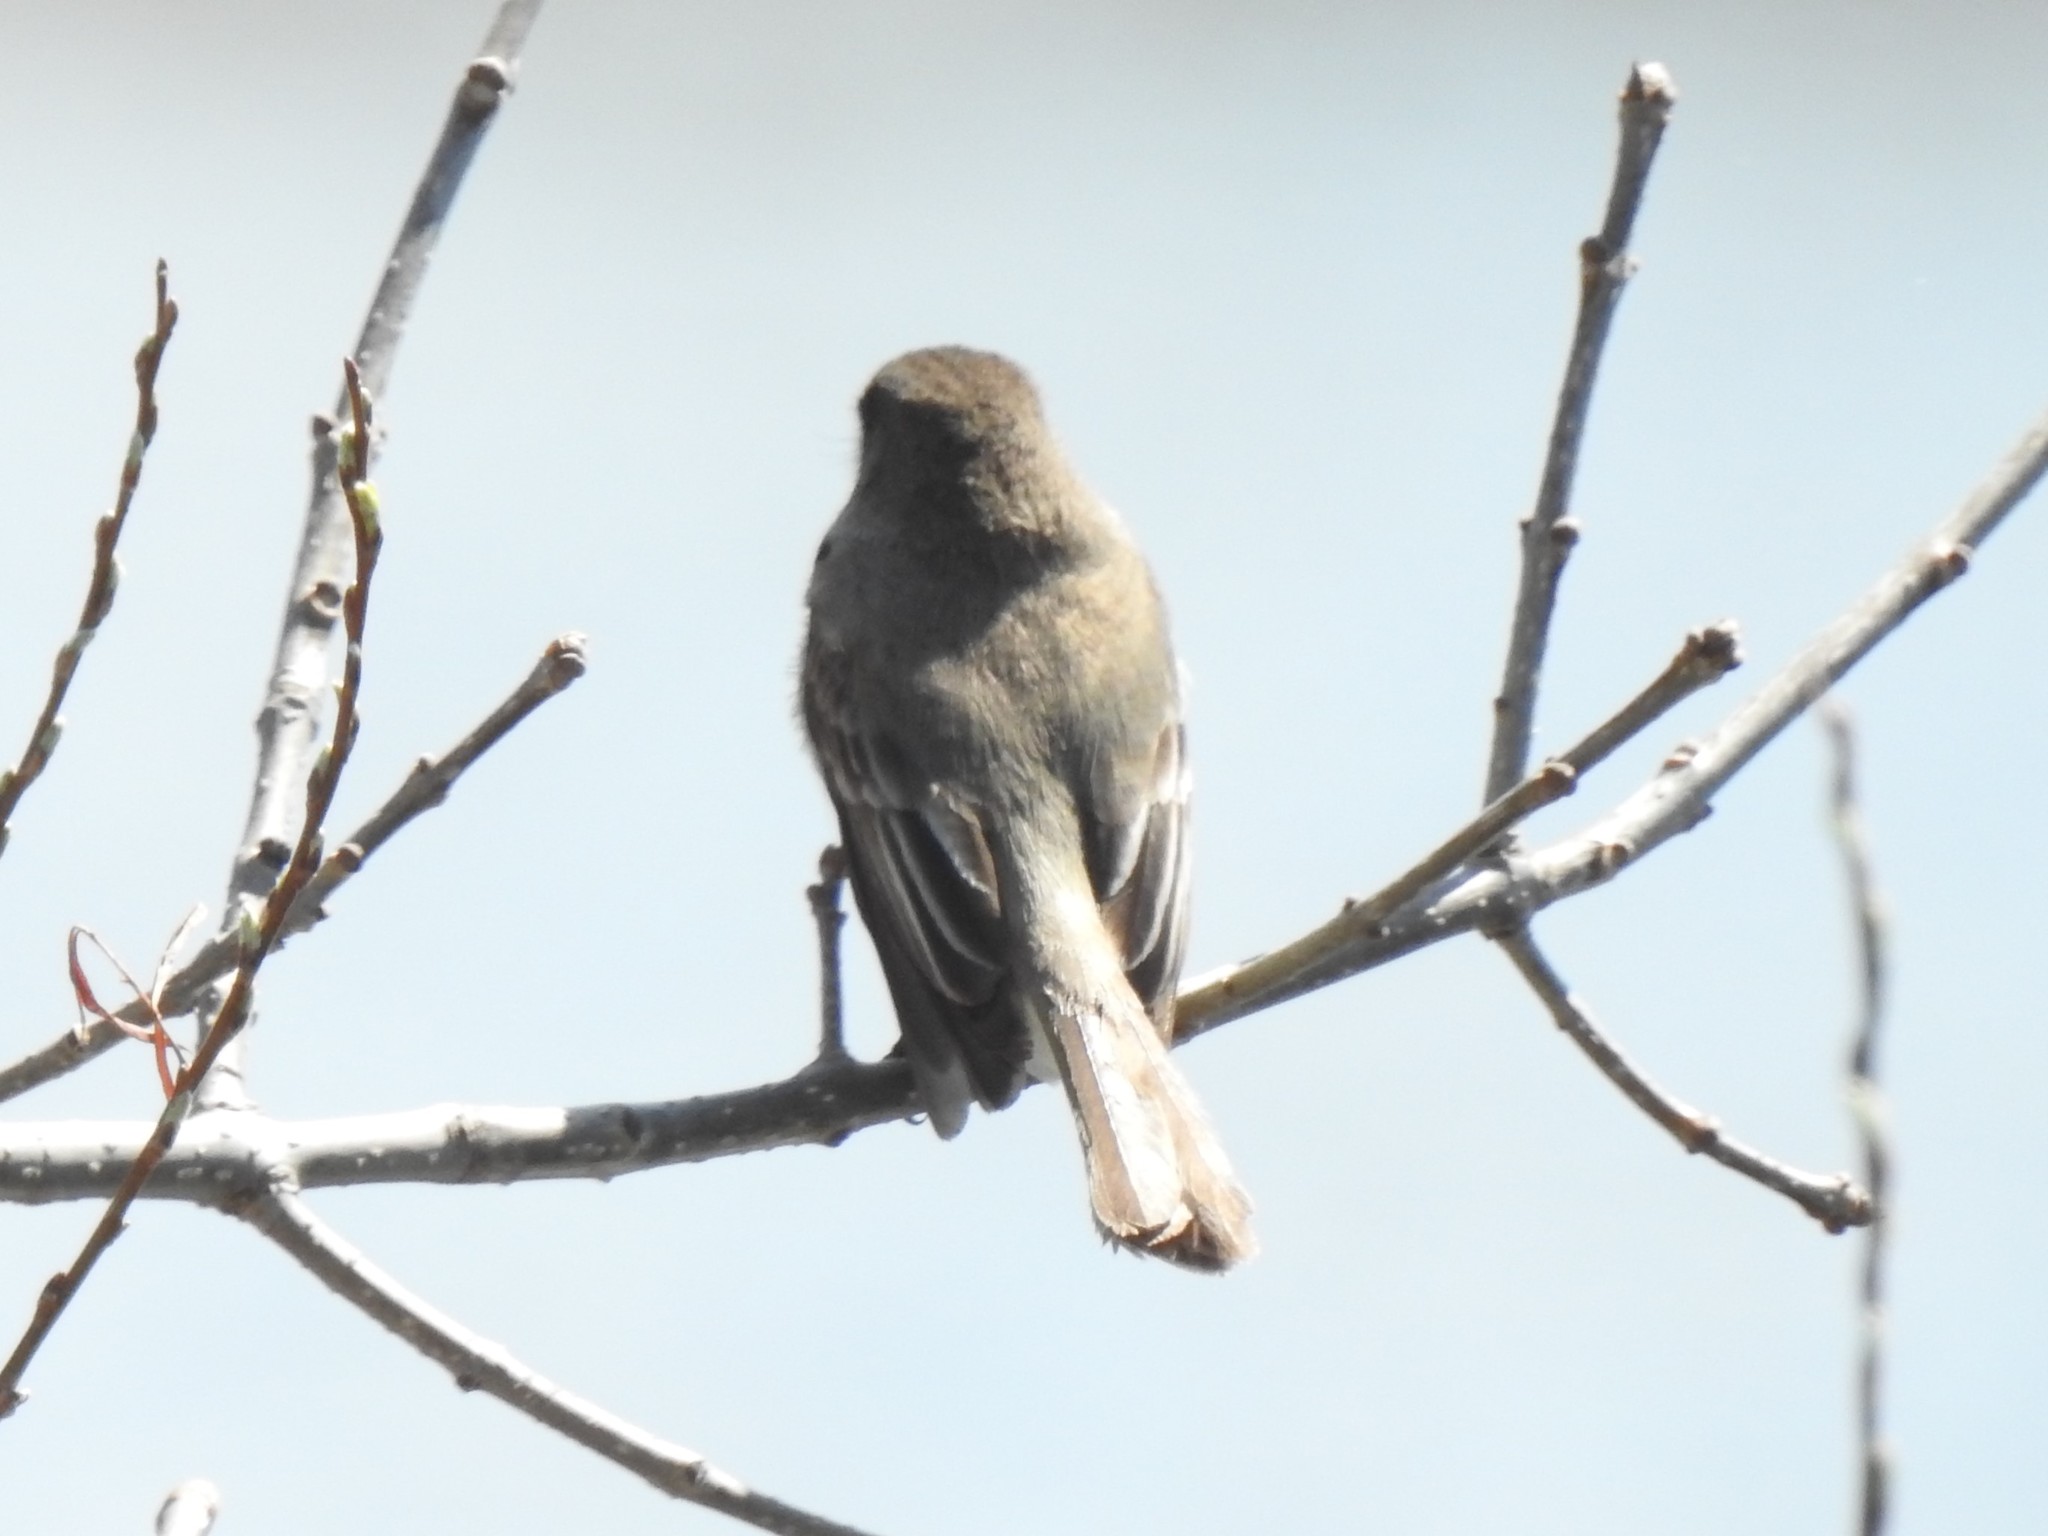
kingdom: Animalia
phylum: Chordata
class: Aves
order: Passeriformes
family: Tyrannidae
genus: Sayornis
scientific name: Sayornis phoebe
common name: Eastern phoebe
